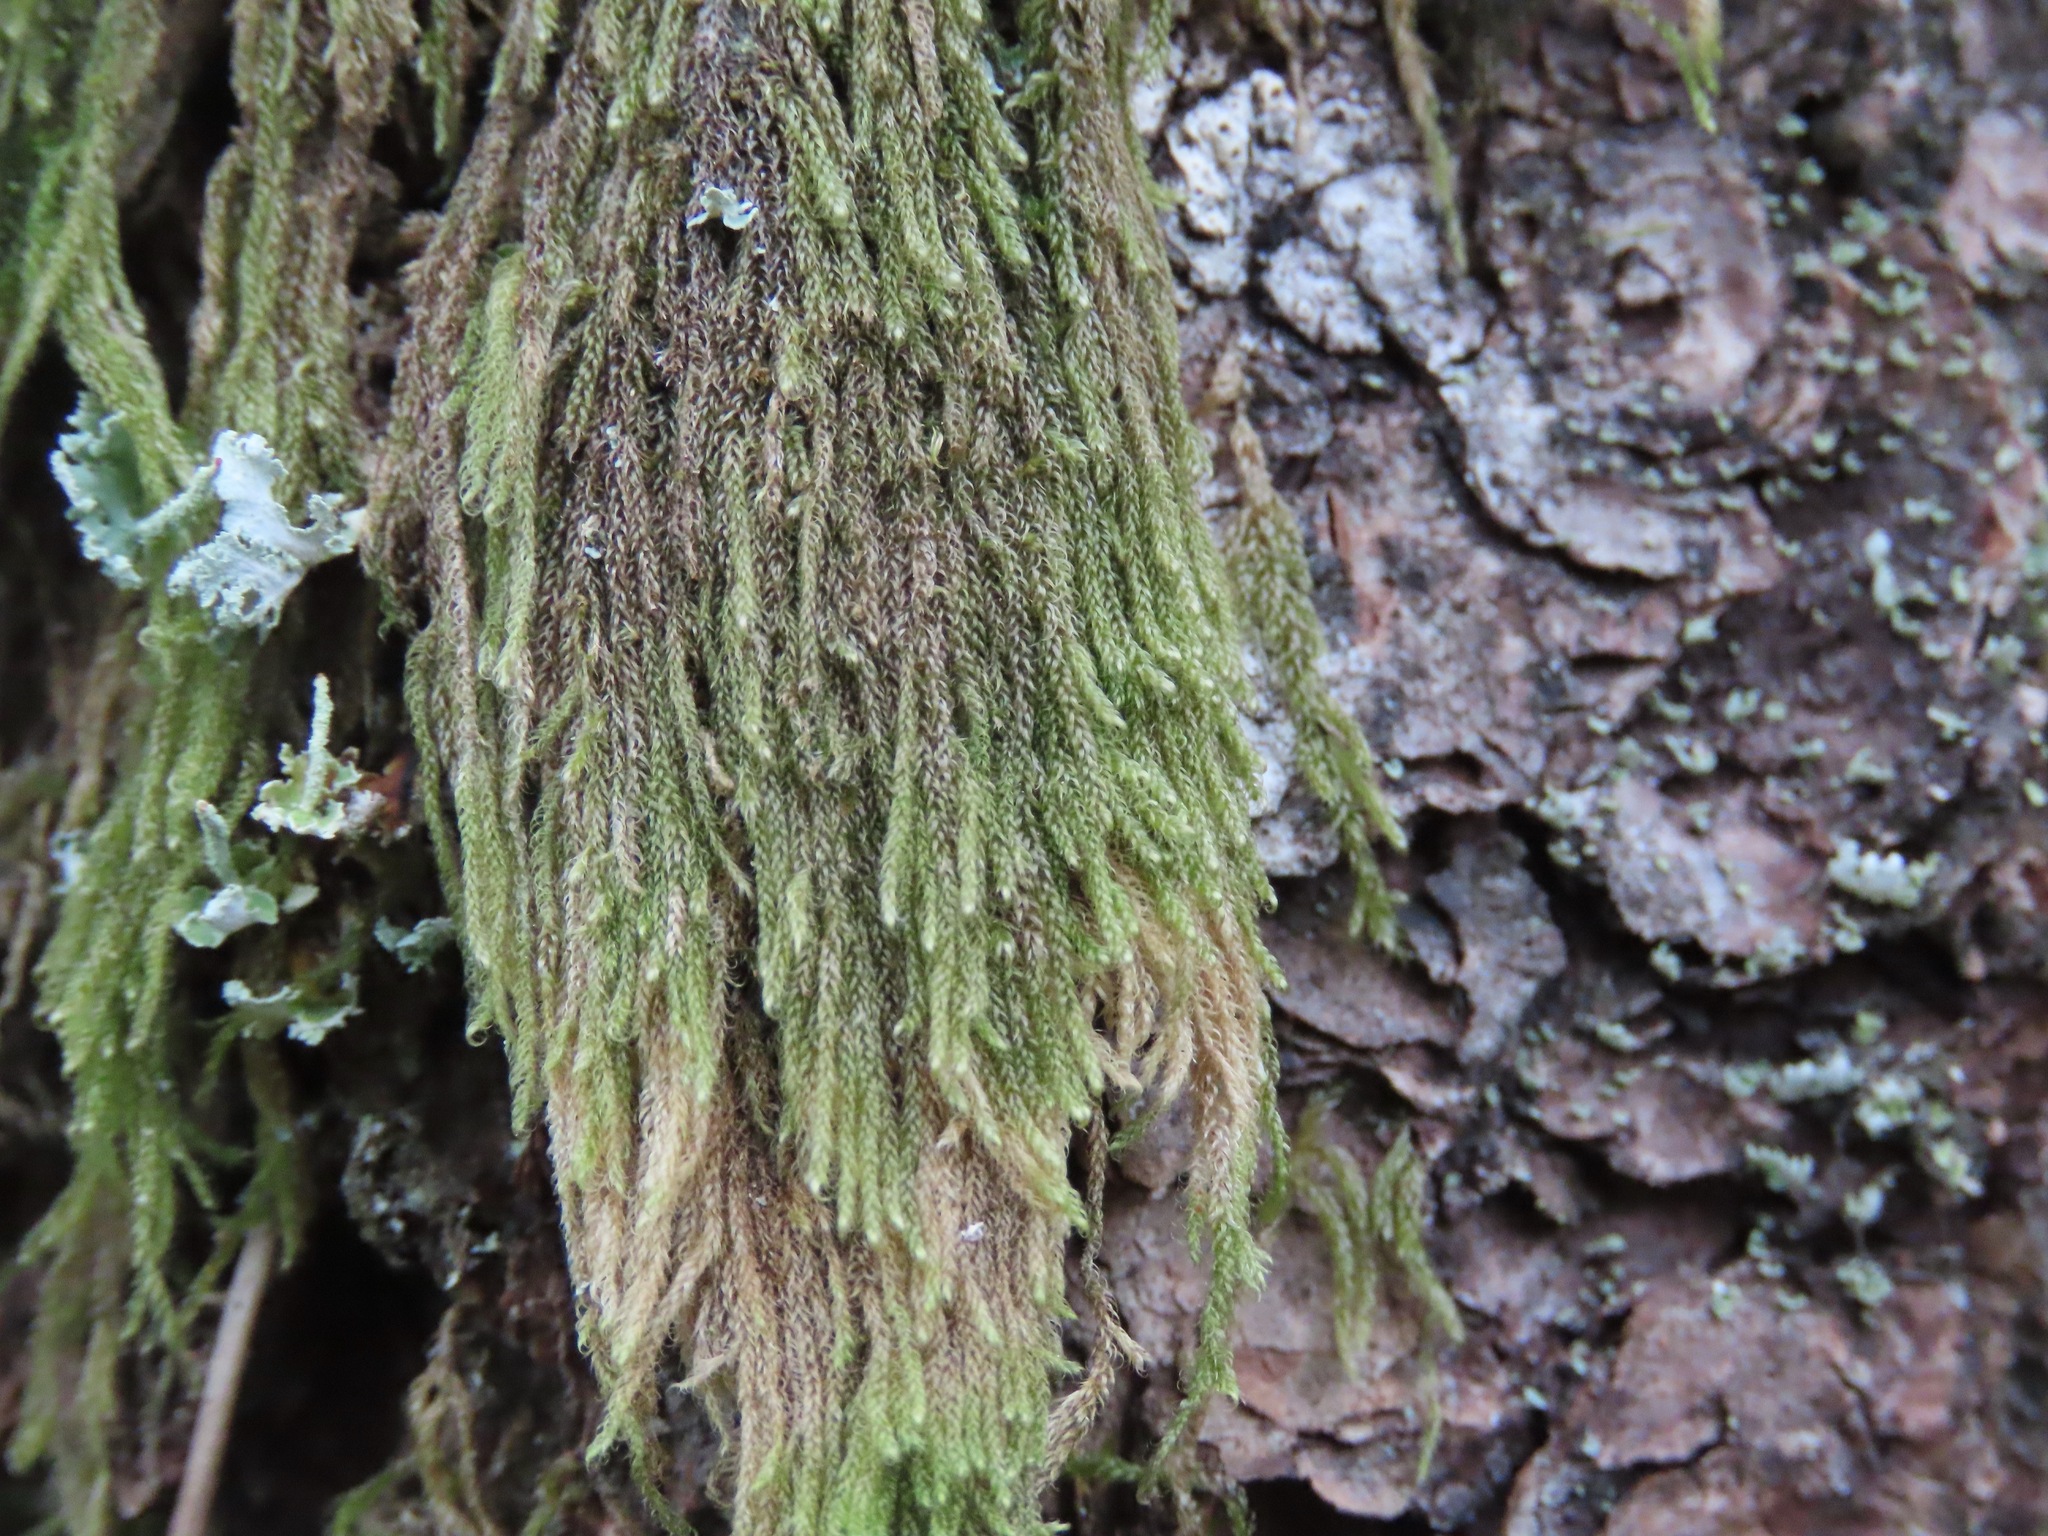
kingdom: Plantae
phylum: Bryophyta
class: Bryopsida
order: Hypnales
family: Pylaisiadelphaceae
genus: Trochophyllohypnum
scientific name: Trochophyllohypnum circinale
